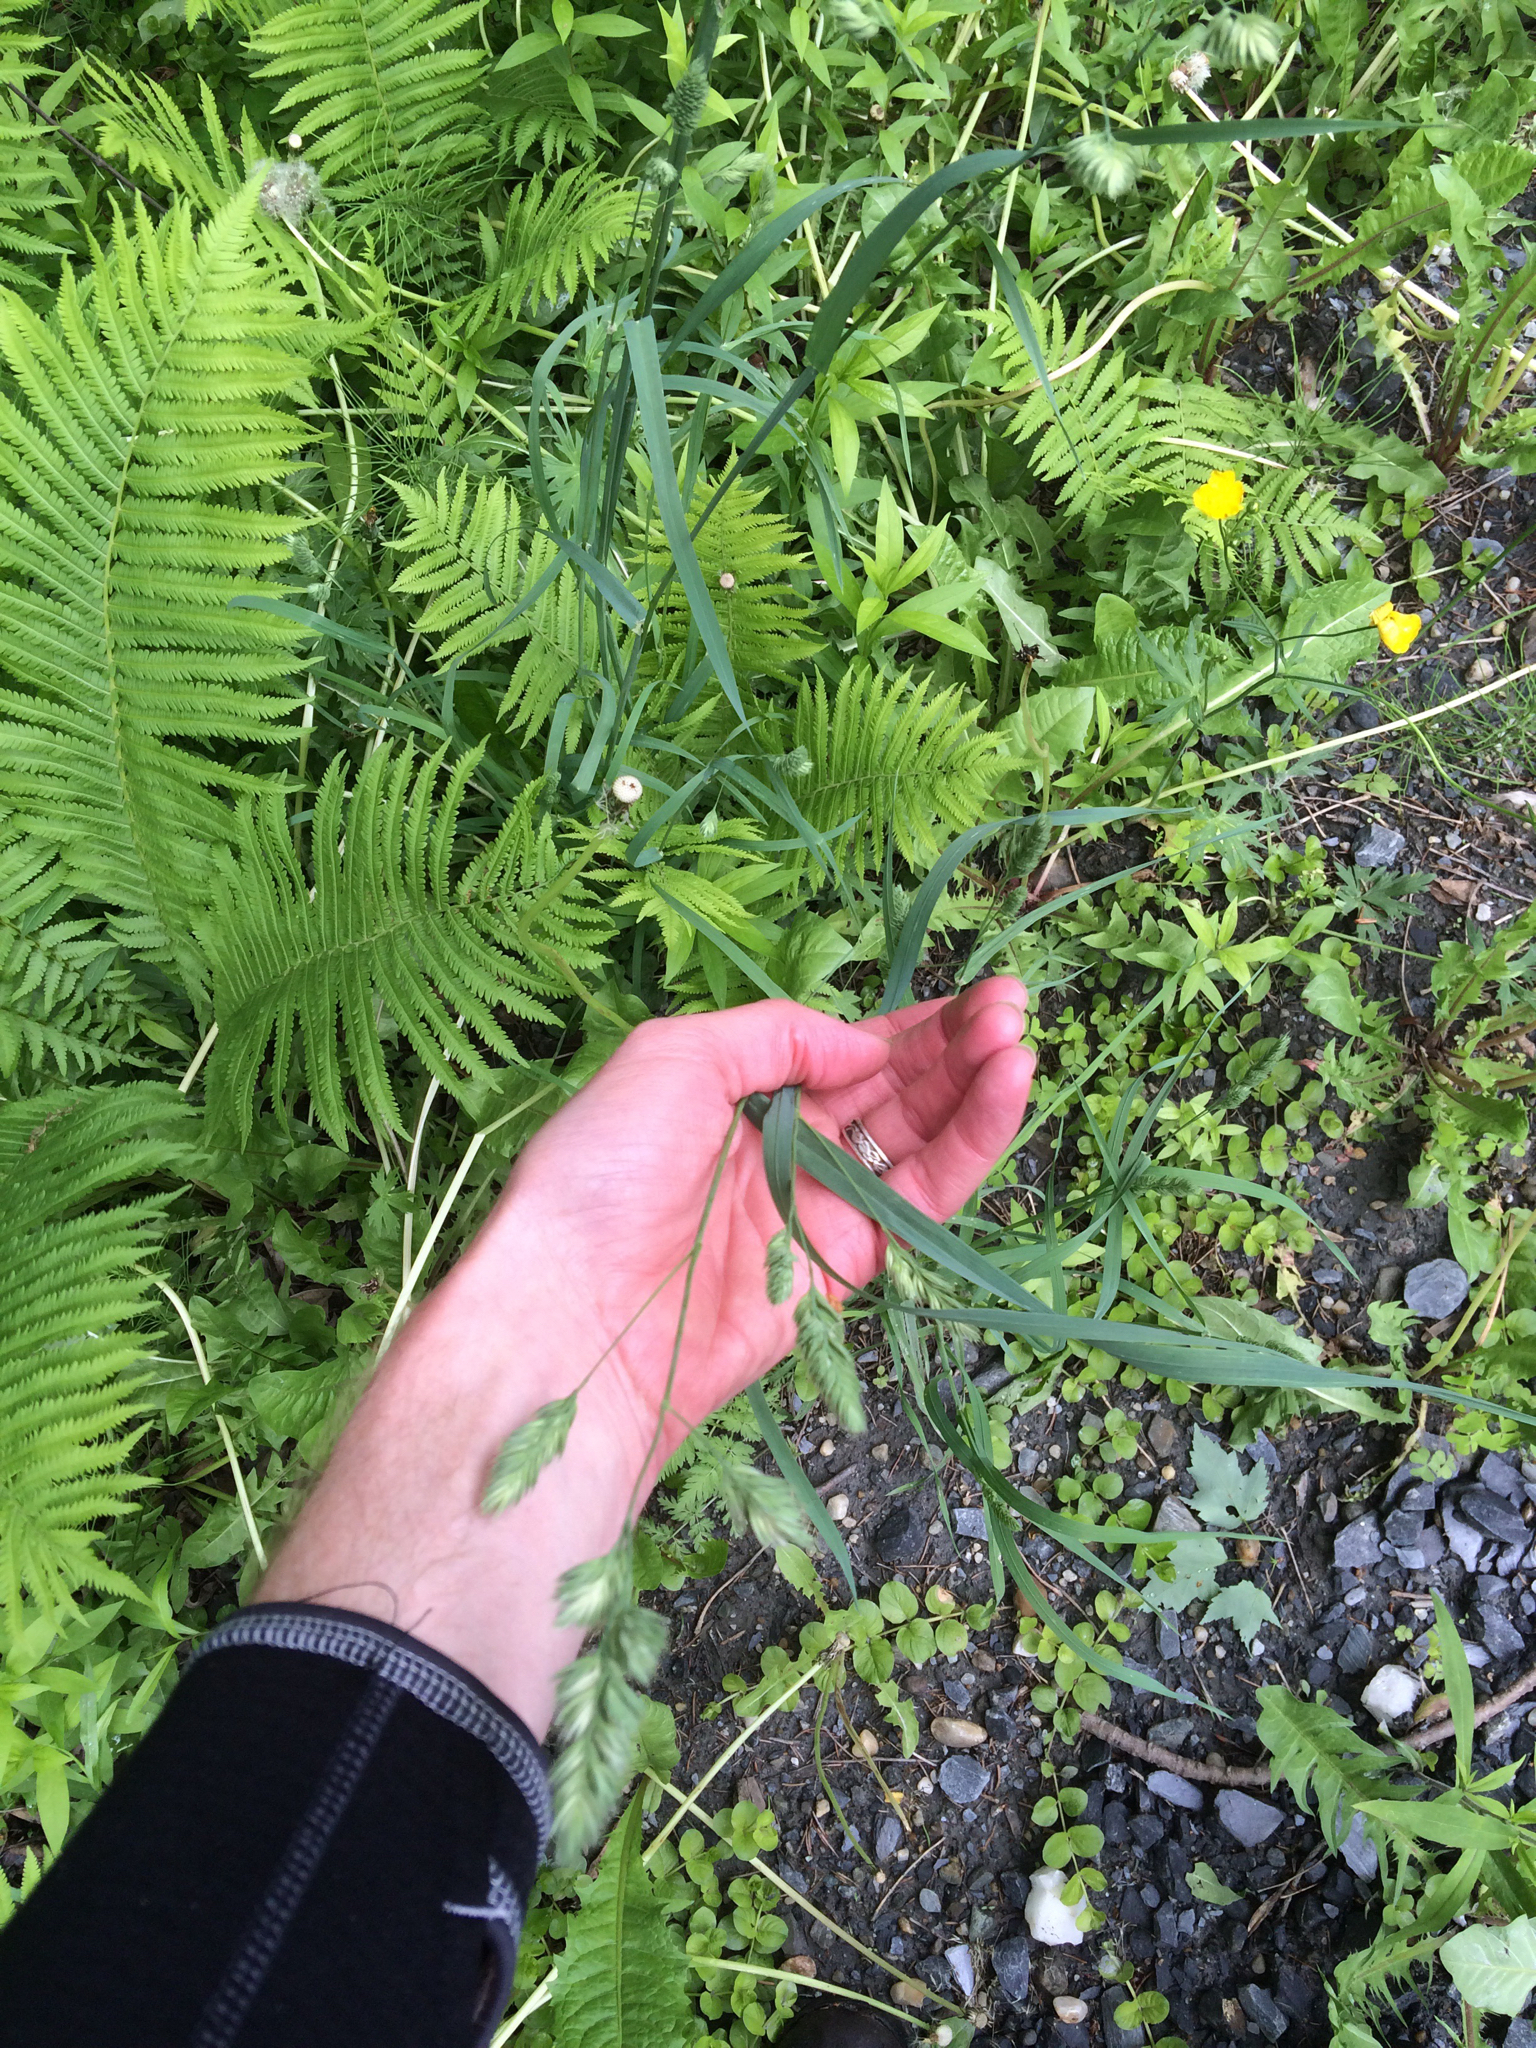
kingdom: Plantae
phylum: Tracheophyta
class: Liliopsida
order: Poales
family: Poaceae
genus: Dactylis
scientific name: Dactylis glomerata
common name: Orchardgrass
